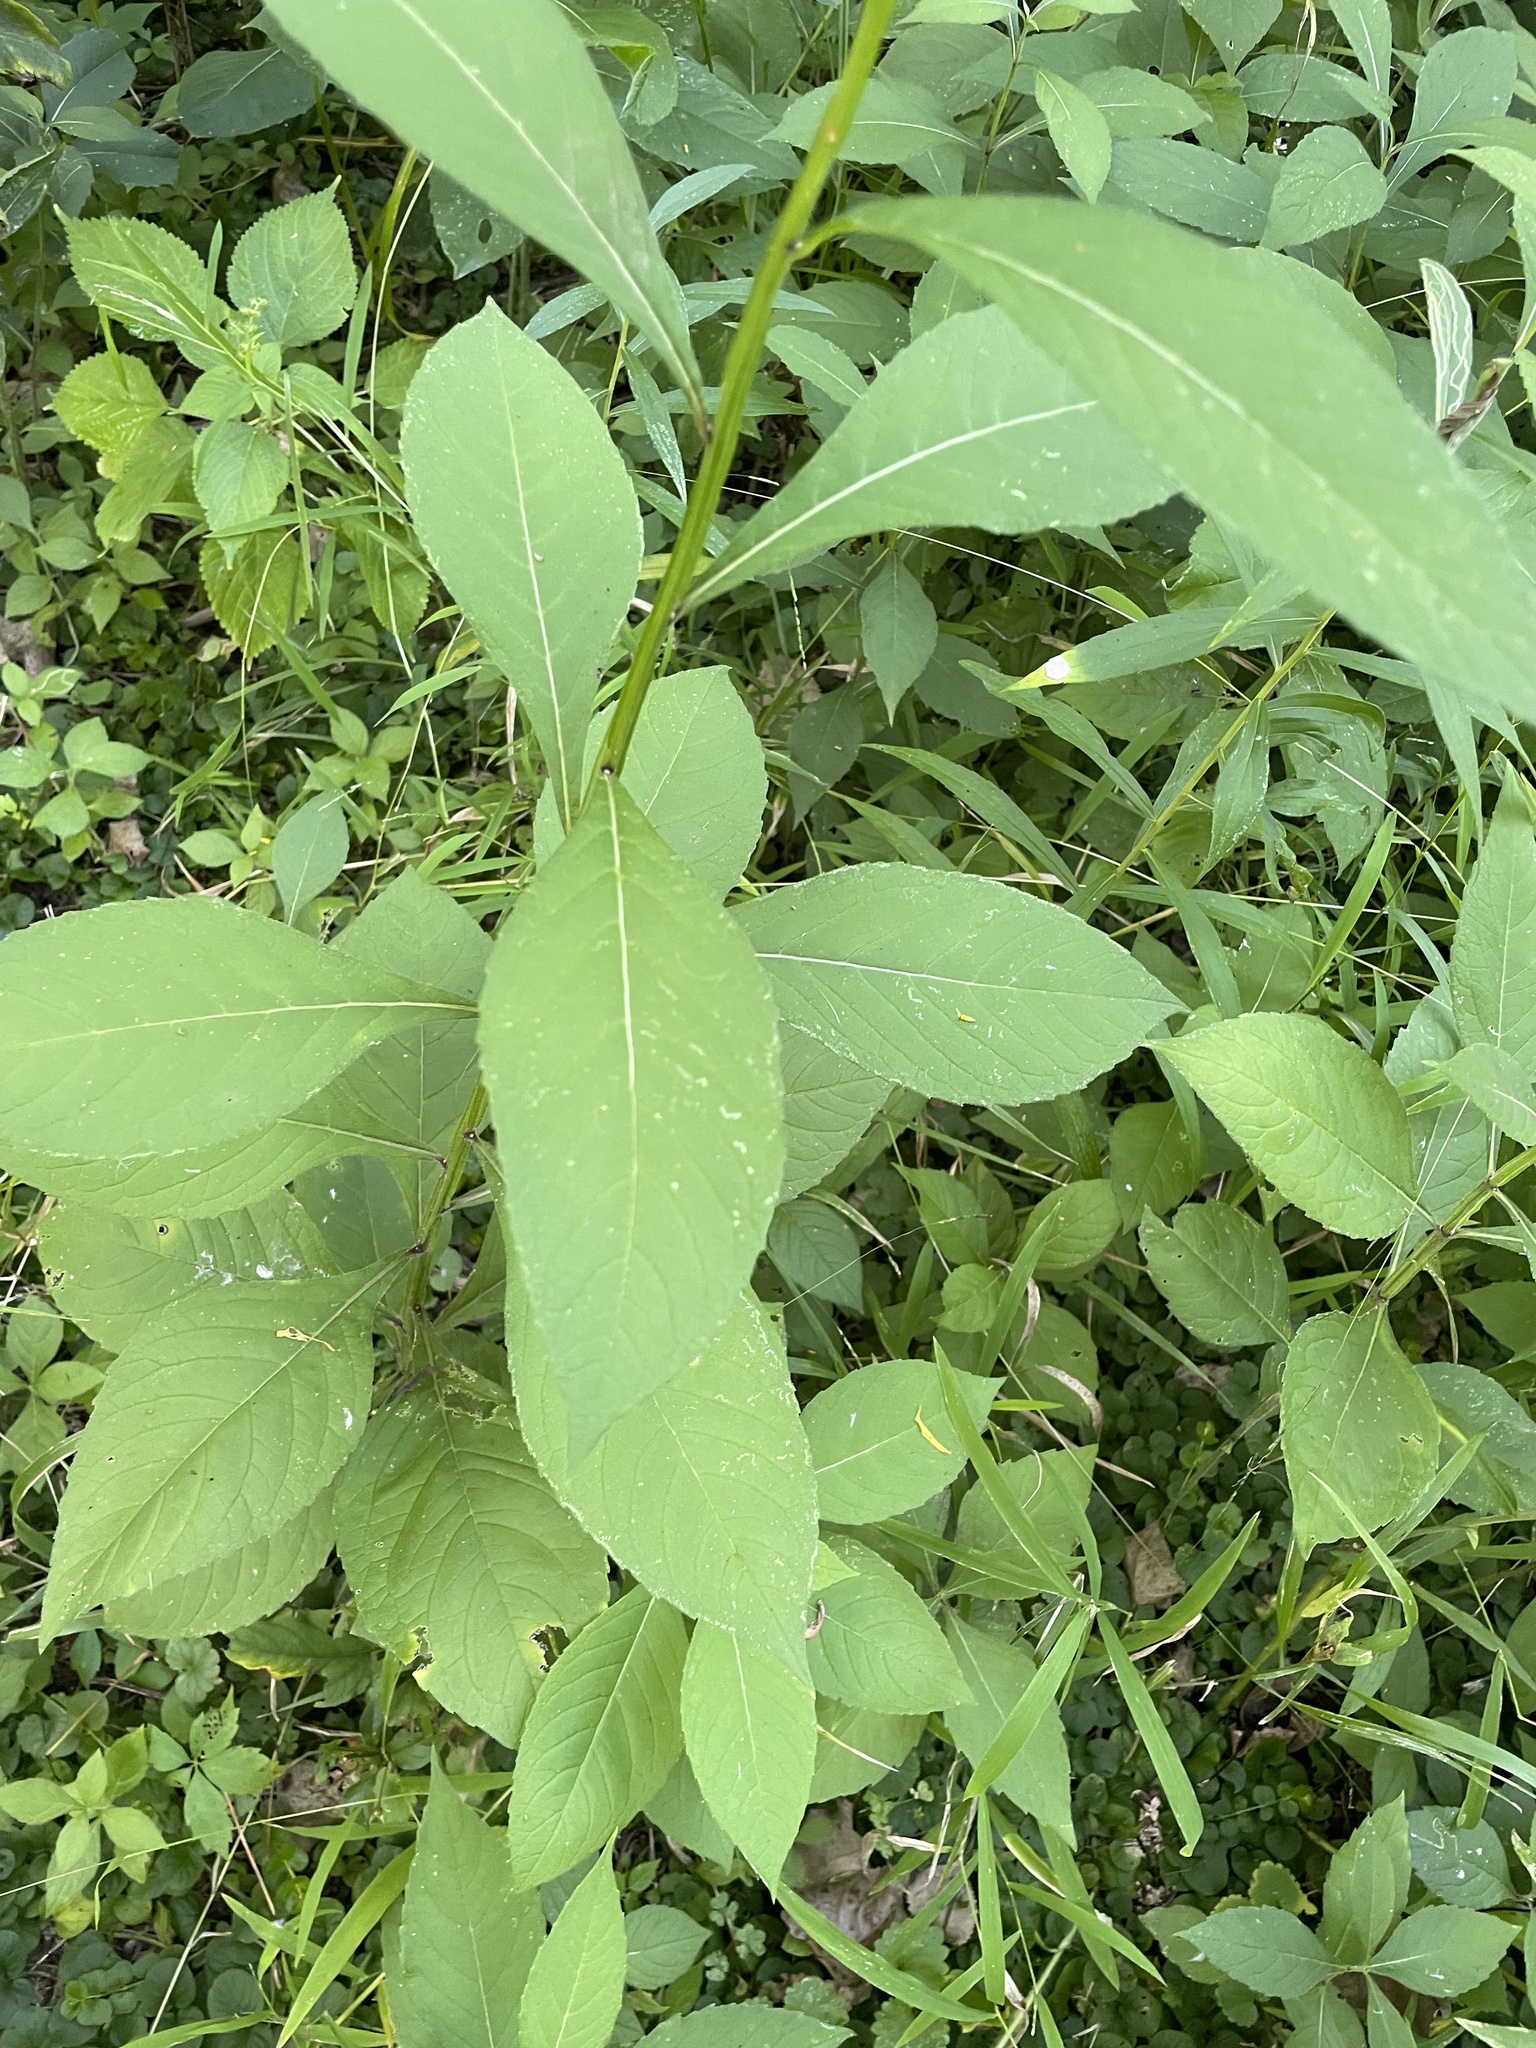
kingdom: Plantae
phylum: Tracheophyta
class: Magnoliopsida
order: Asterales
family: Asteraceae
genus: Verbesina
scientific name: Verbesina alternifolia
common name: Wingstem
